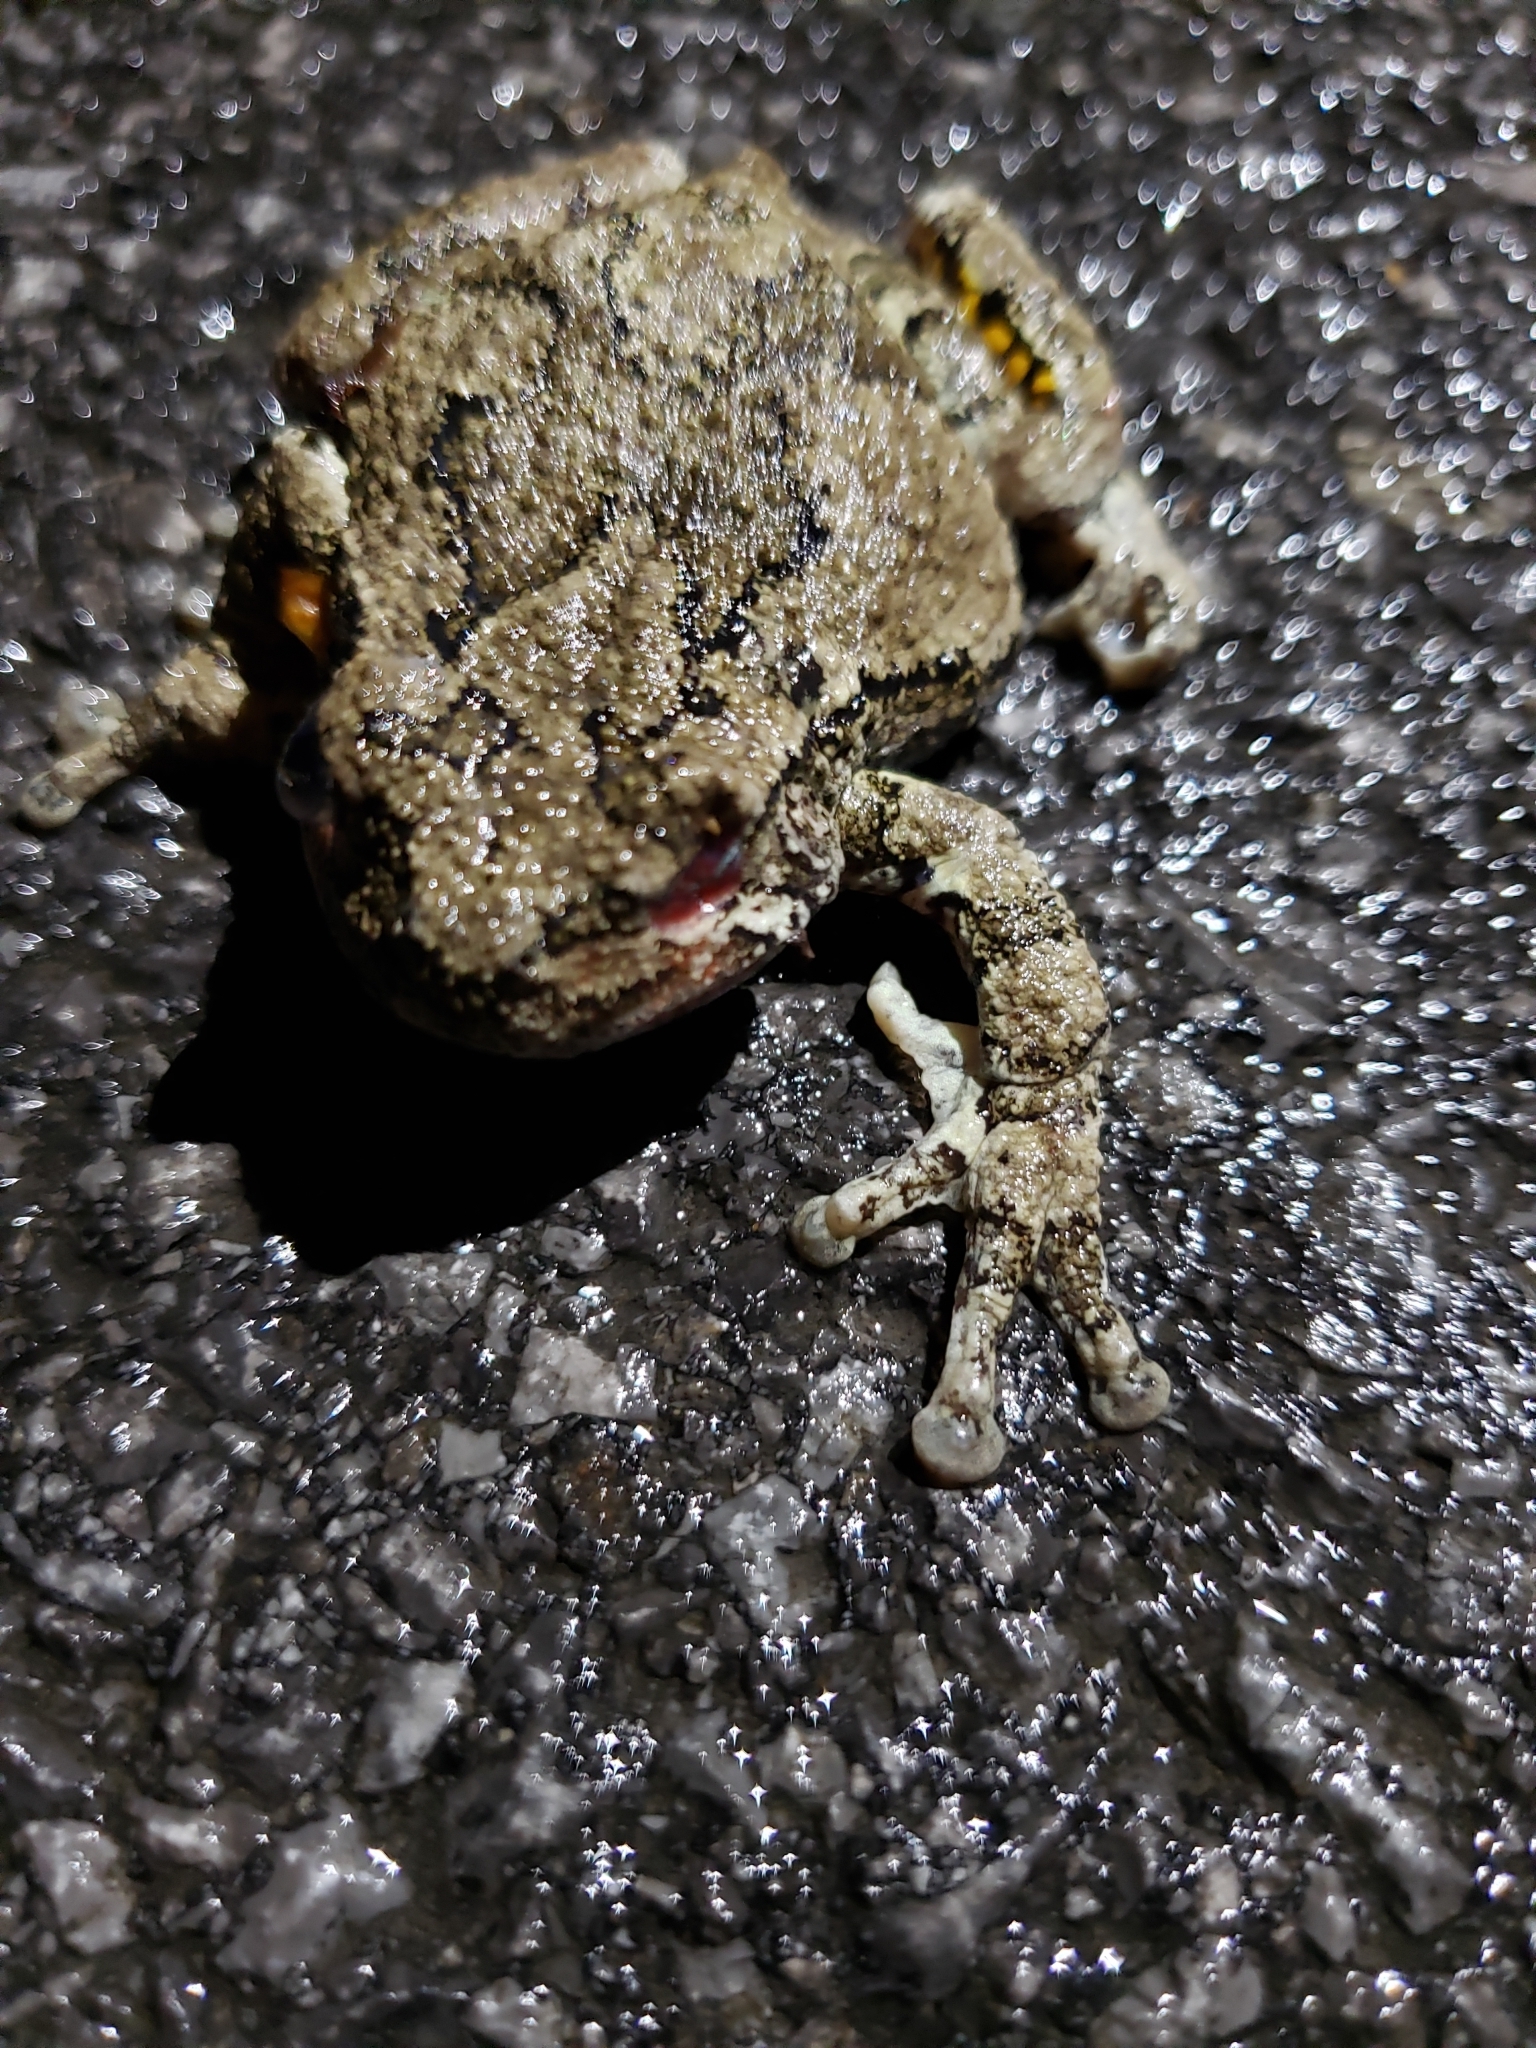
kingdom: Animalia
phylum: Chordata
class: Amphibia
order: Anura
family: Hylidae
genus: Dryophytes
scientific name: Dryophytes versicolor
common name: Gray treefrog
